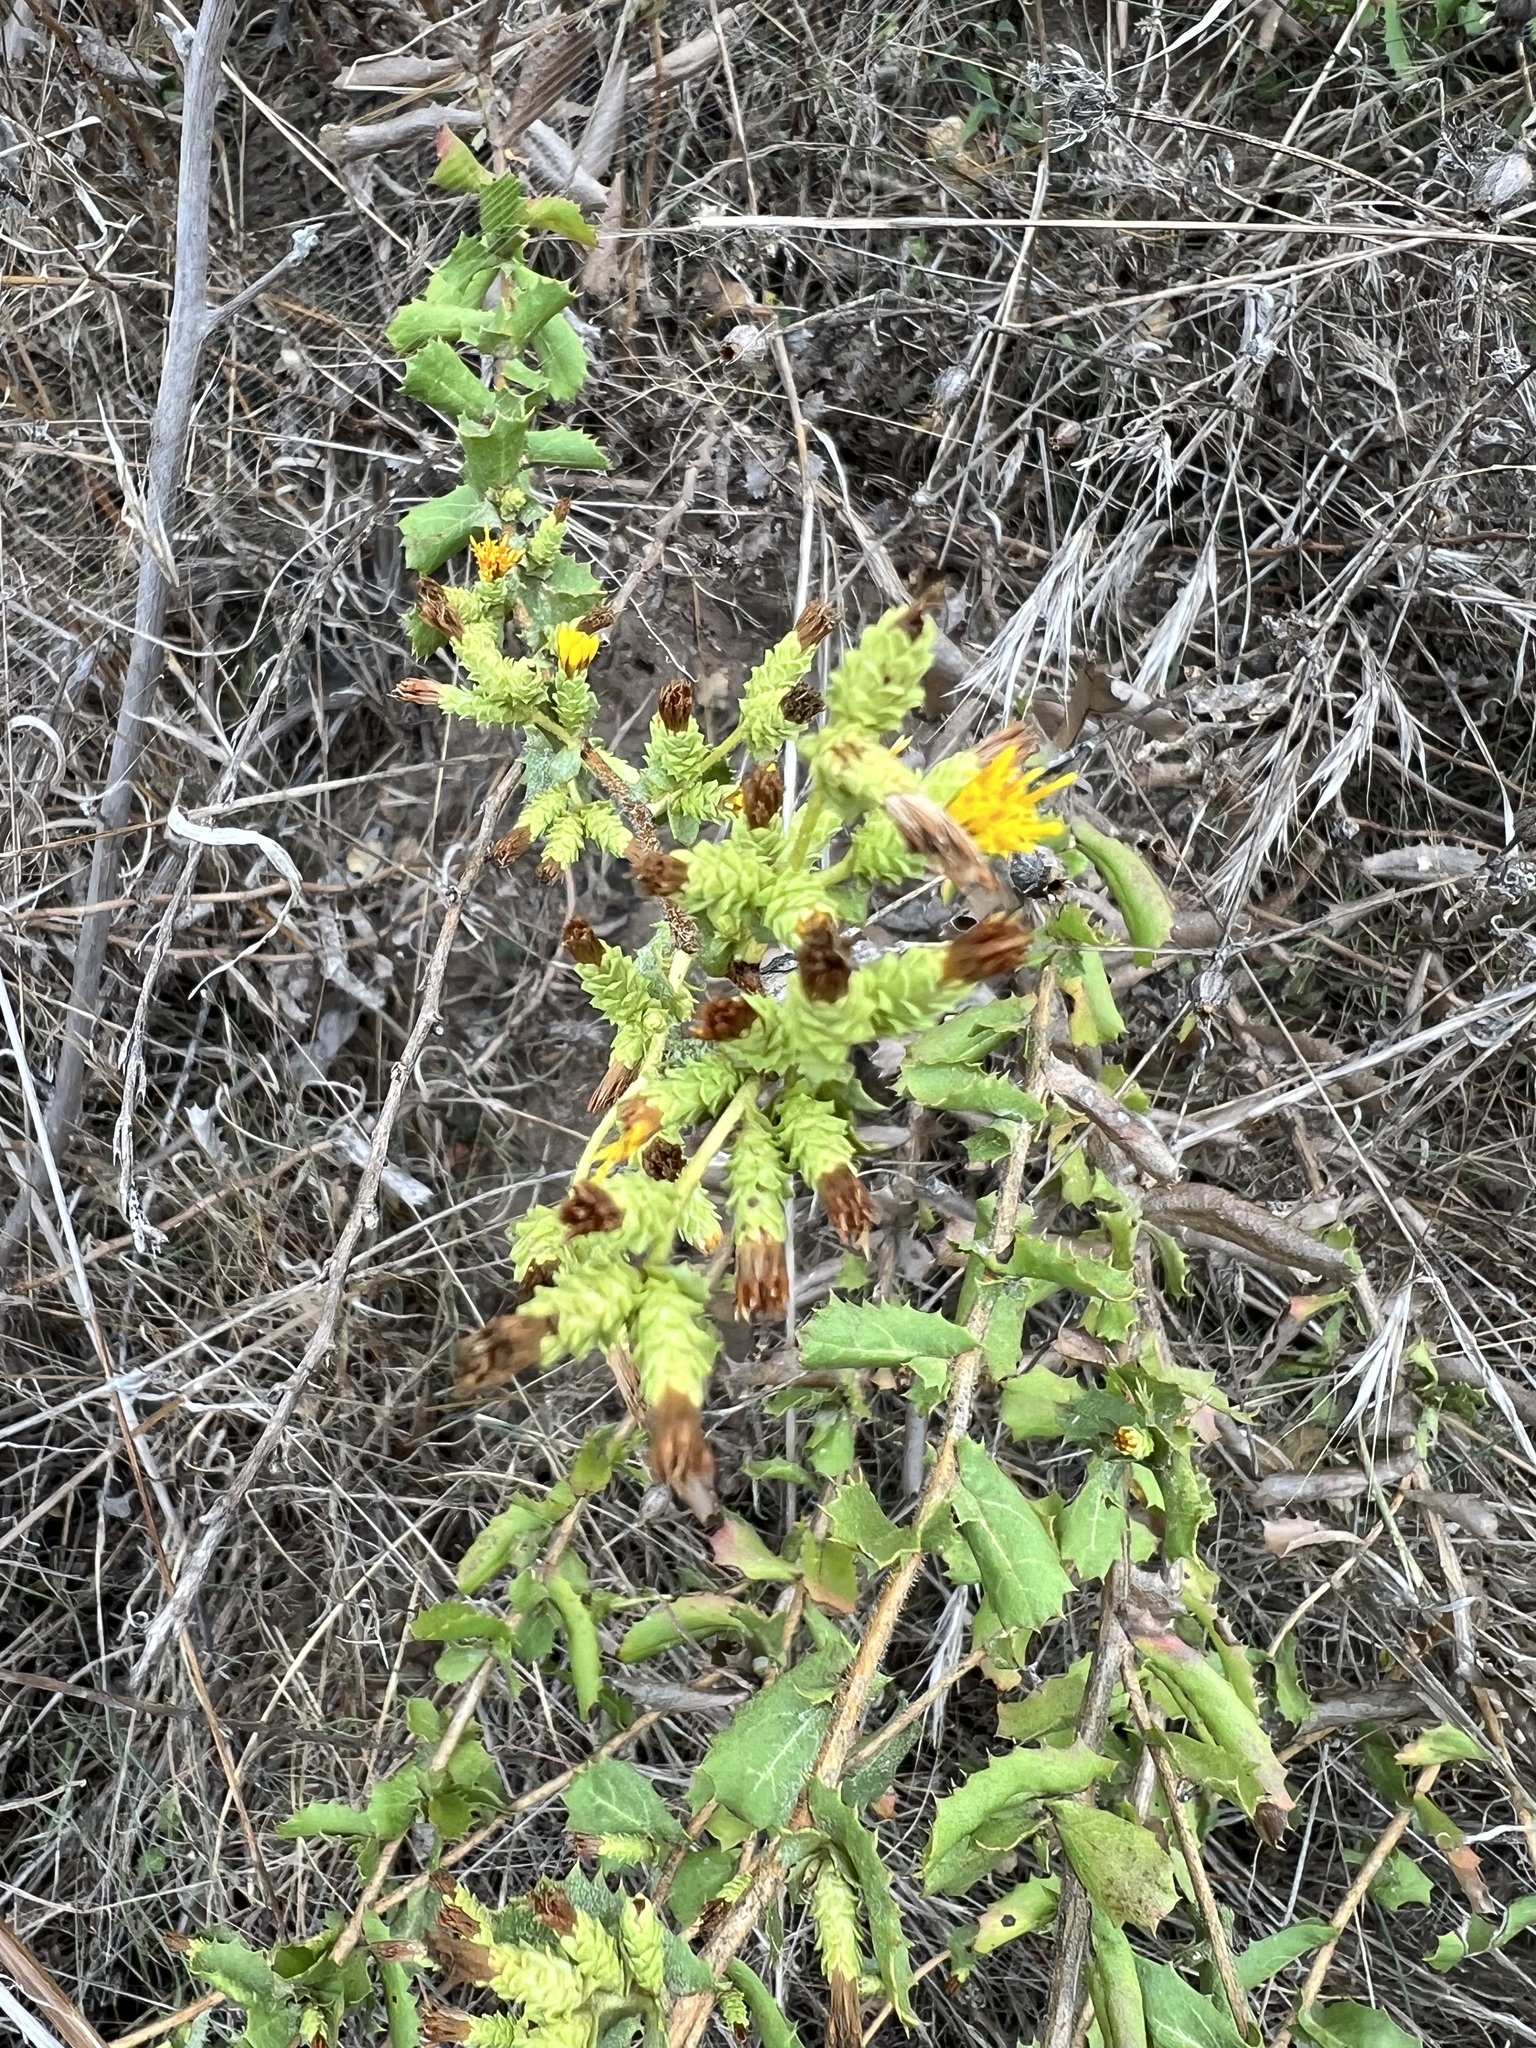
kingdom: Plantae
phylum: Tracheophyta
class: Magnoliopsida
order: Asterales
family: Asteraceae
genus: Hazardia
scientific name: Hazardia squarrosa
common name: Saw-tooth goldenbush
